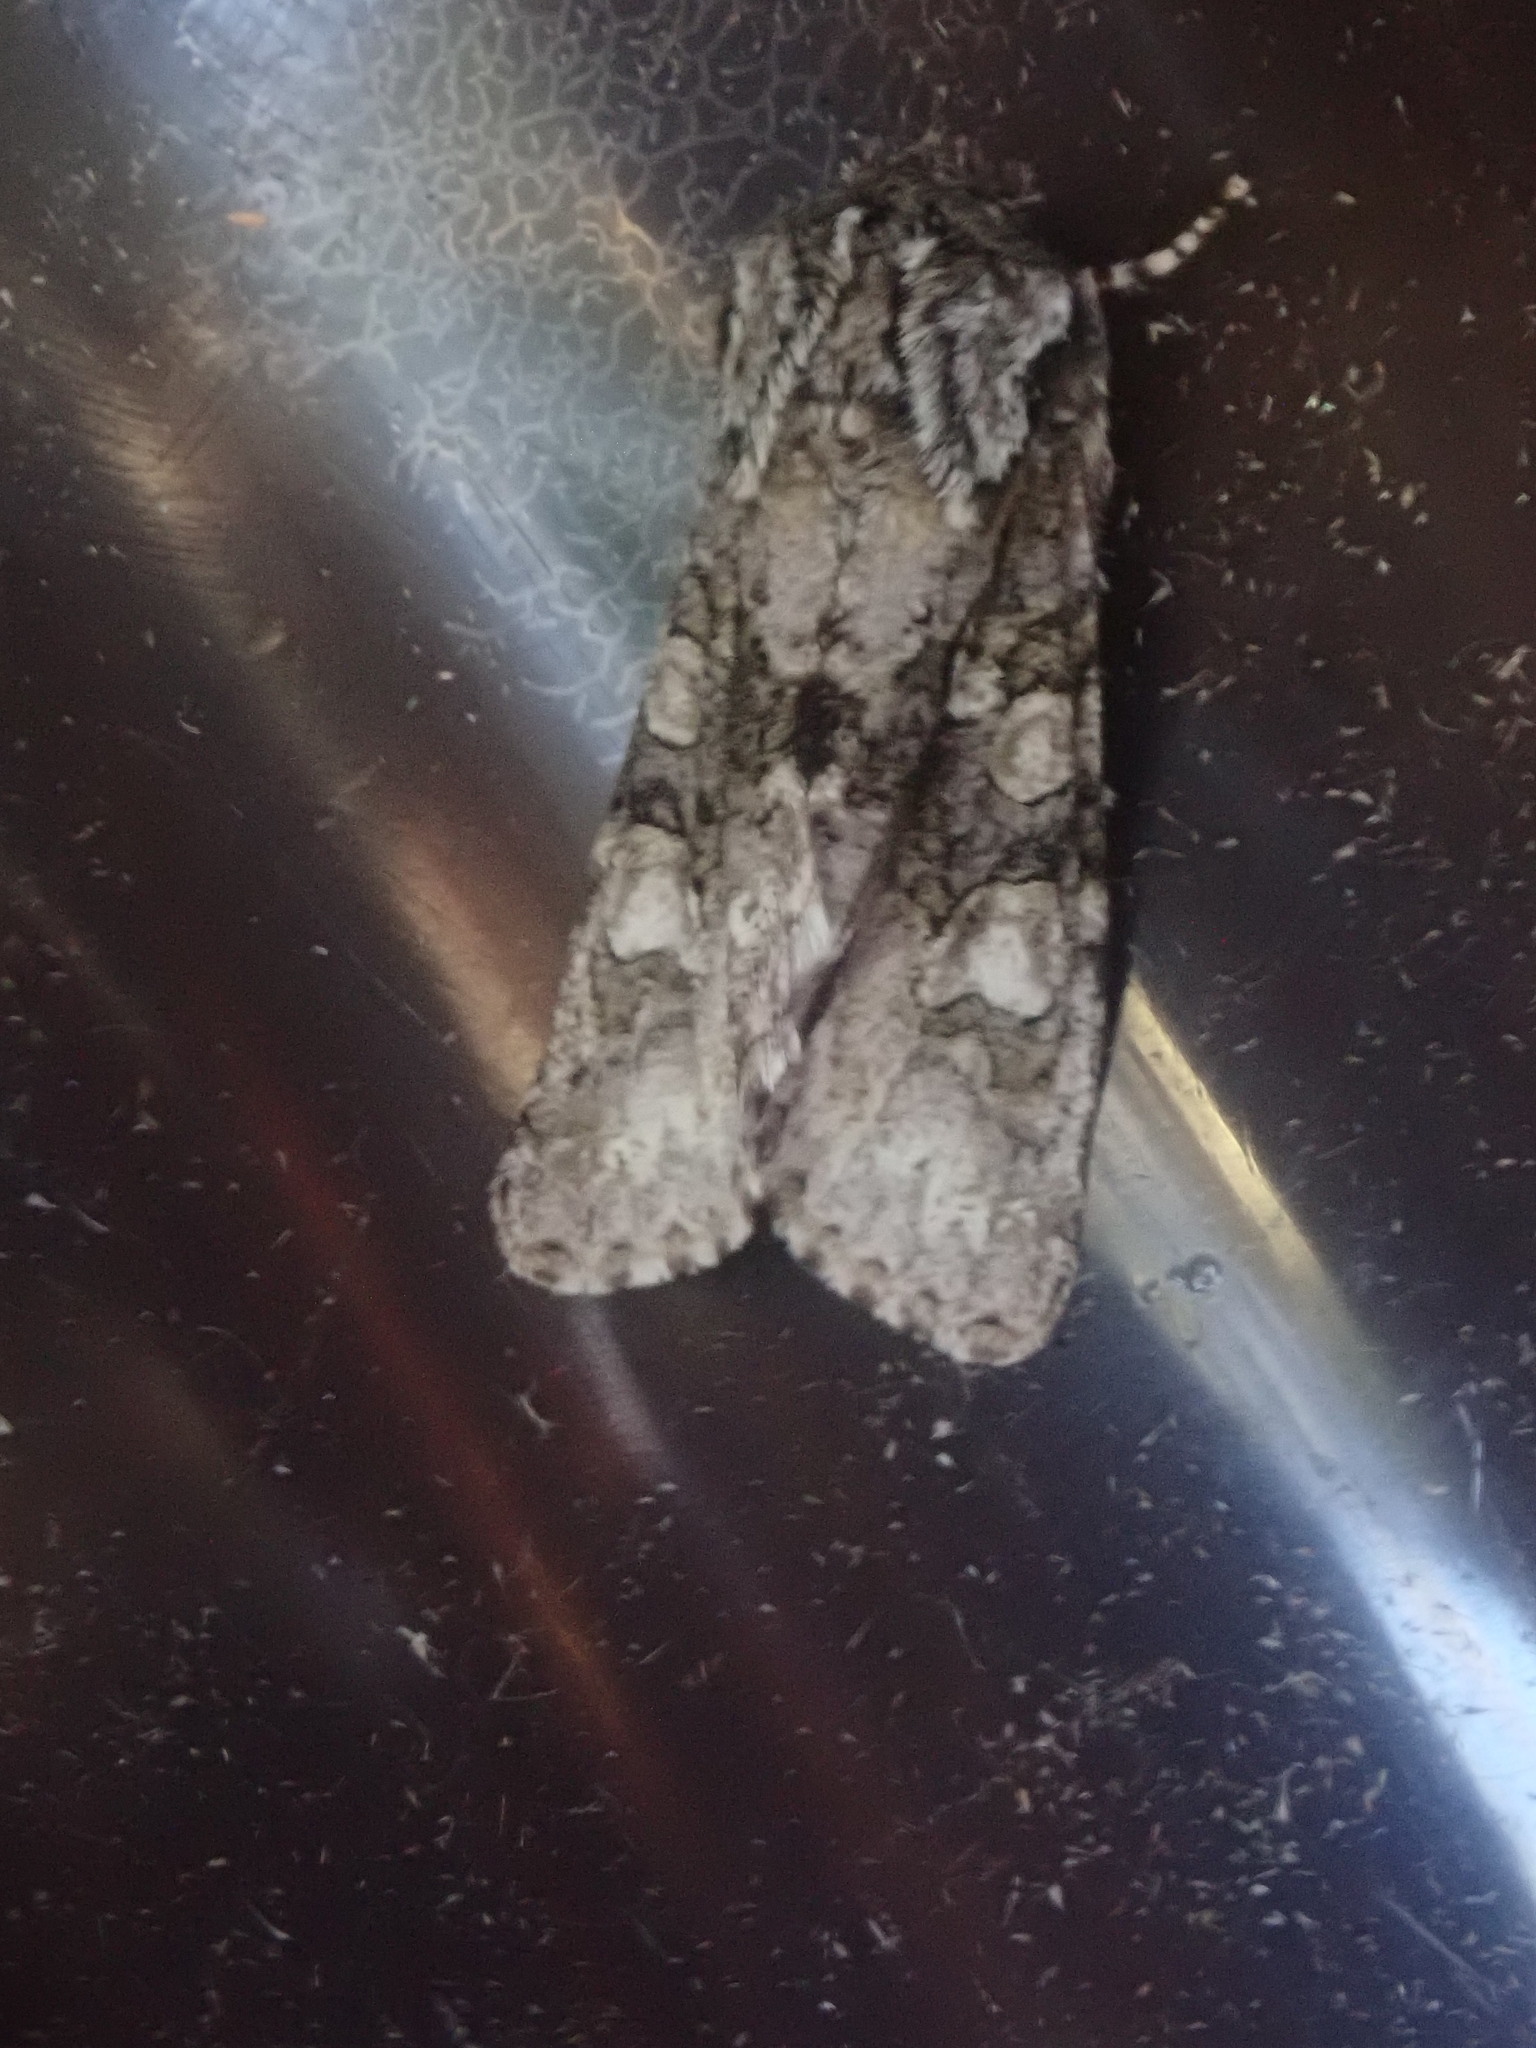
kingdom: Animalia
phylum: Arthropoda
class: Insecta
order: Lepidoptera
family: Noctuidae
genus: Psaphida
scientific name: Psaphida resumens
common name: Figure-eight sallow
